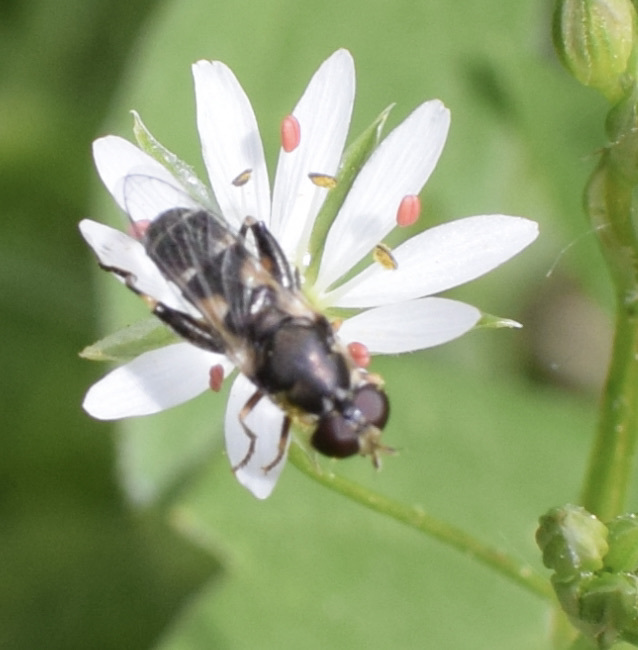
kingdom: Animalia
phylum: Arthropoda
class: Insecta
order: Diptera
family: Syrphidae
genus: Syritta
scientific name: Syritta pipiens
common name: Hover fly
